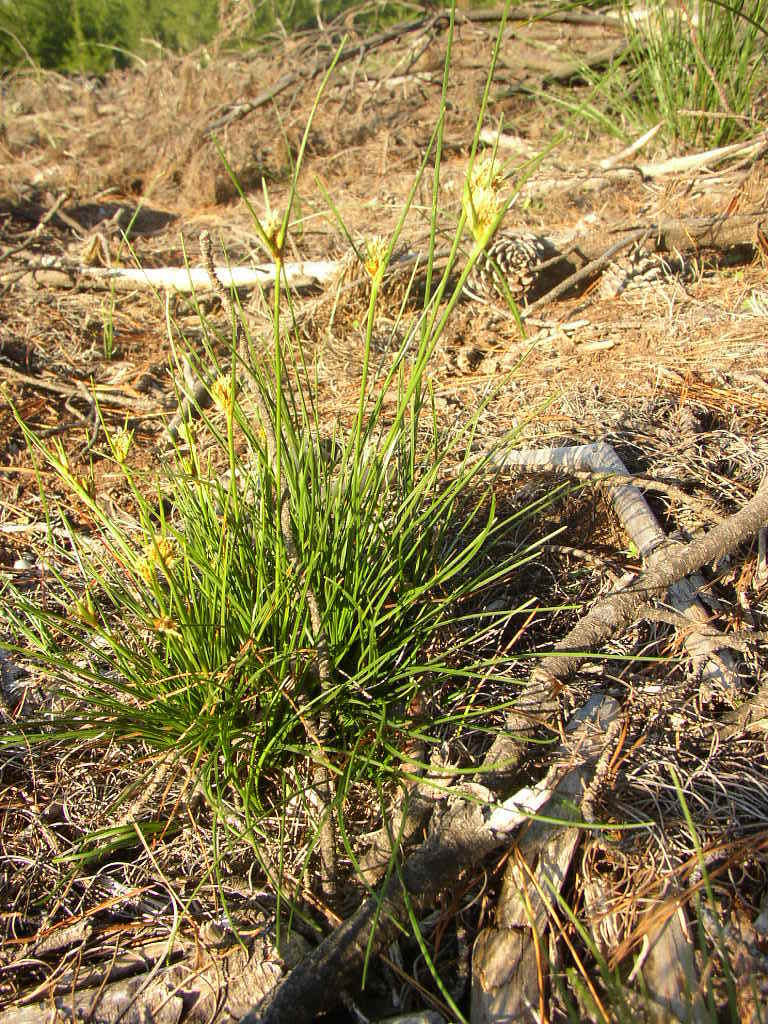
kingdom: Plantae
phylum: Tracheophyta
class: Liliopsida
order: Poales
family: Cyperaceae
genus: Ficinia
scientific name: Ficinia pallens
